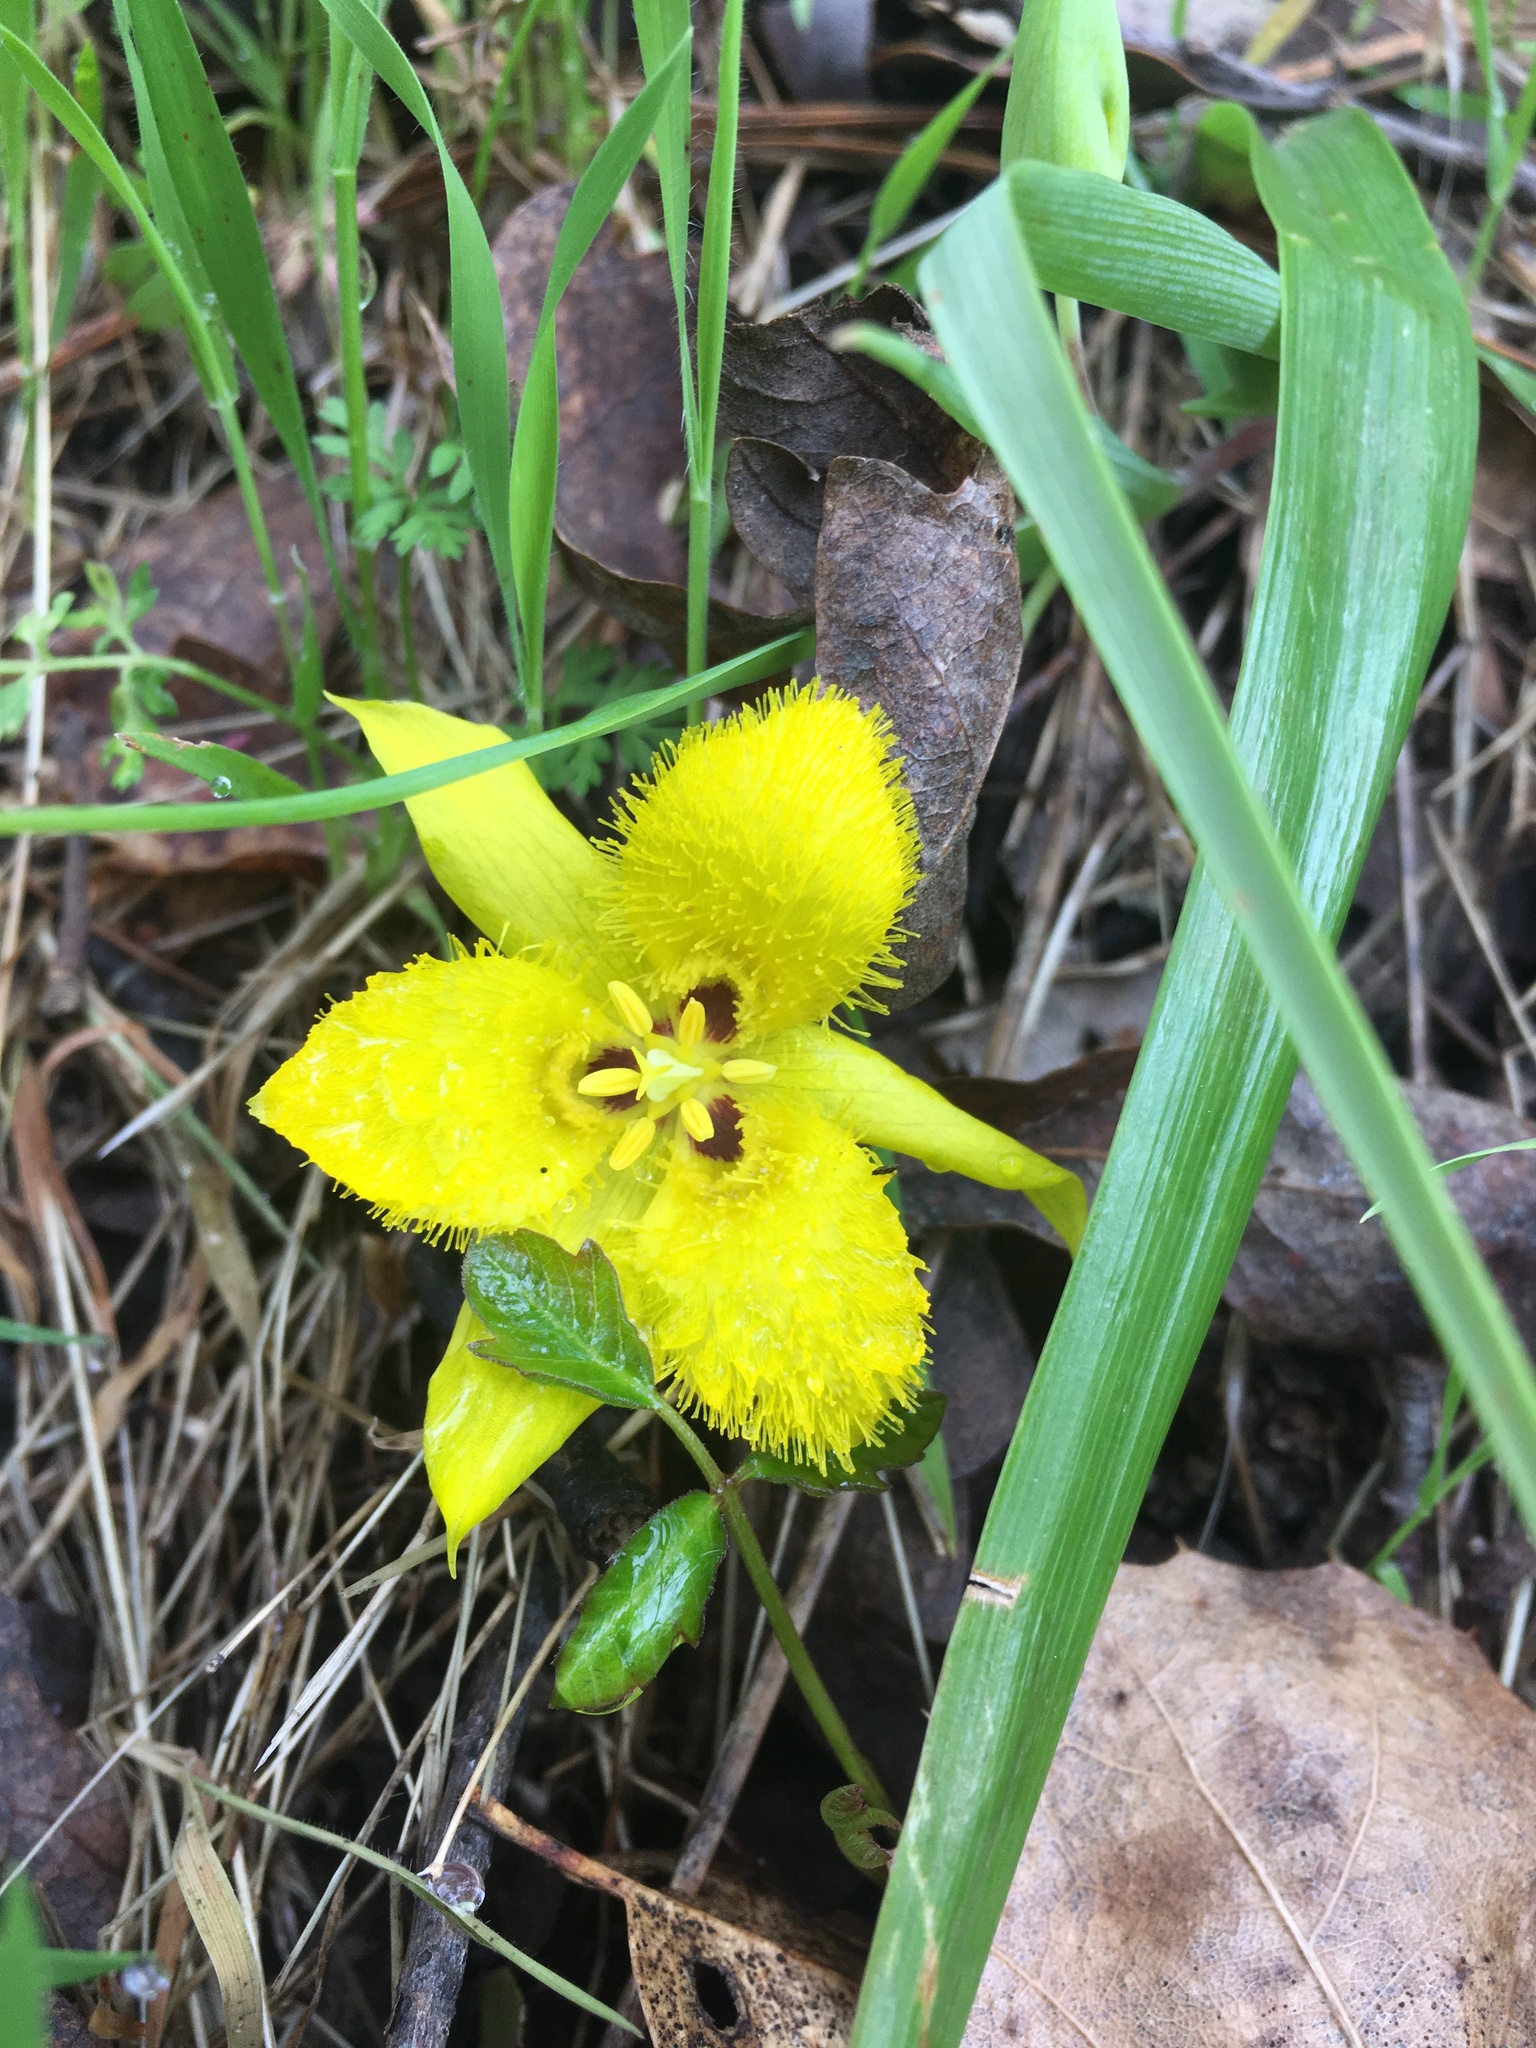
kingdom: Plantae
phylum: Tracheophyta
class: Liliopsida
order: Liliales
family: Liliaceae
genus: Calochortus
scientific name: Calochortus monophyllus
